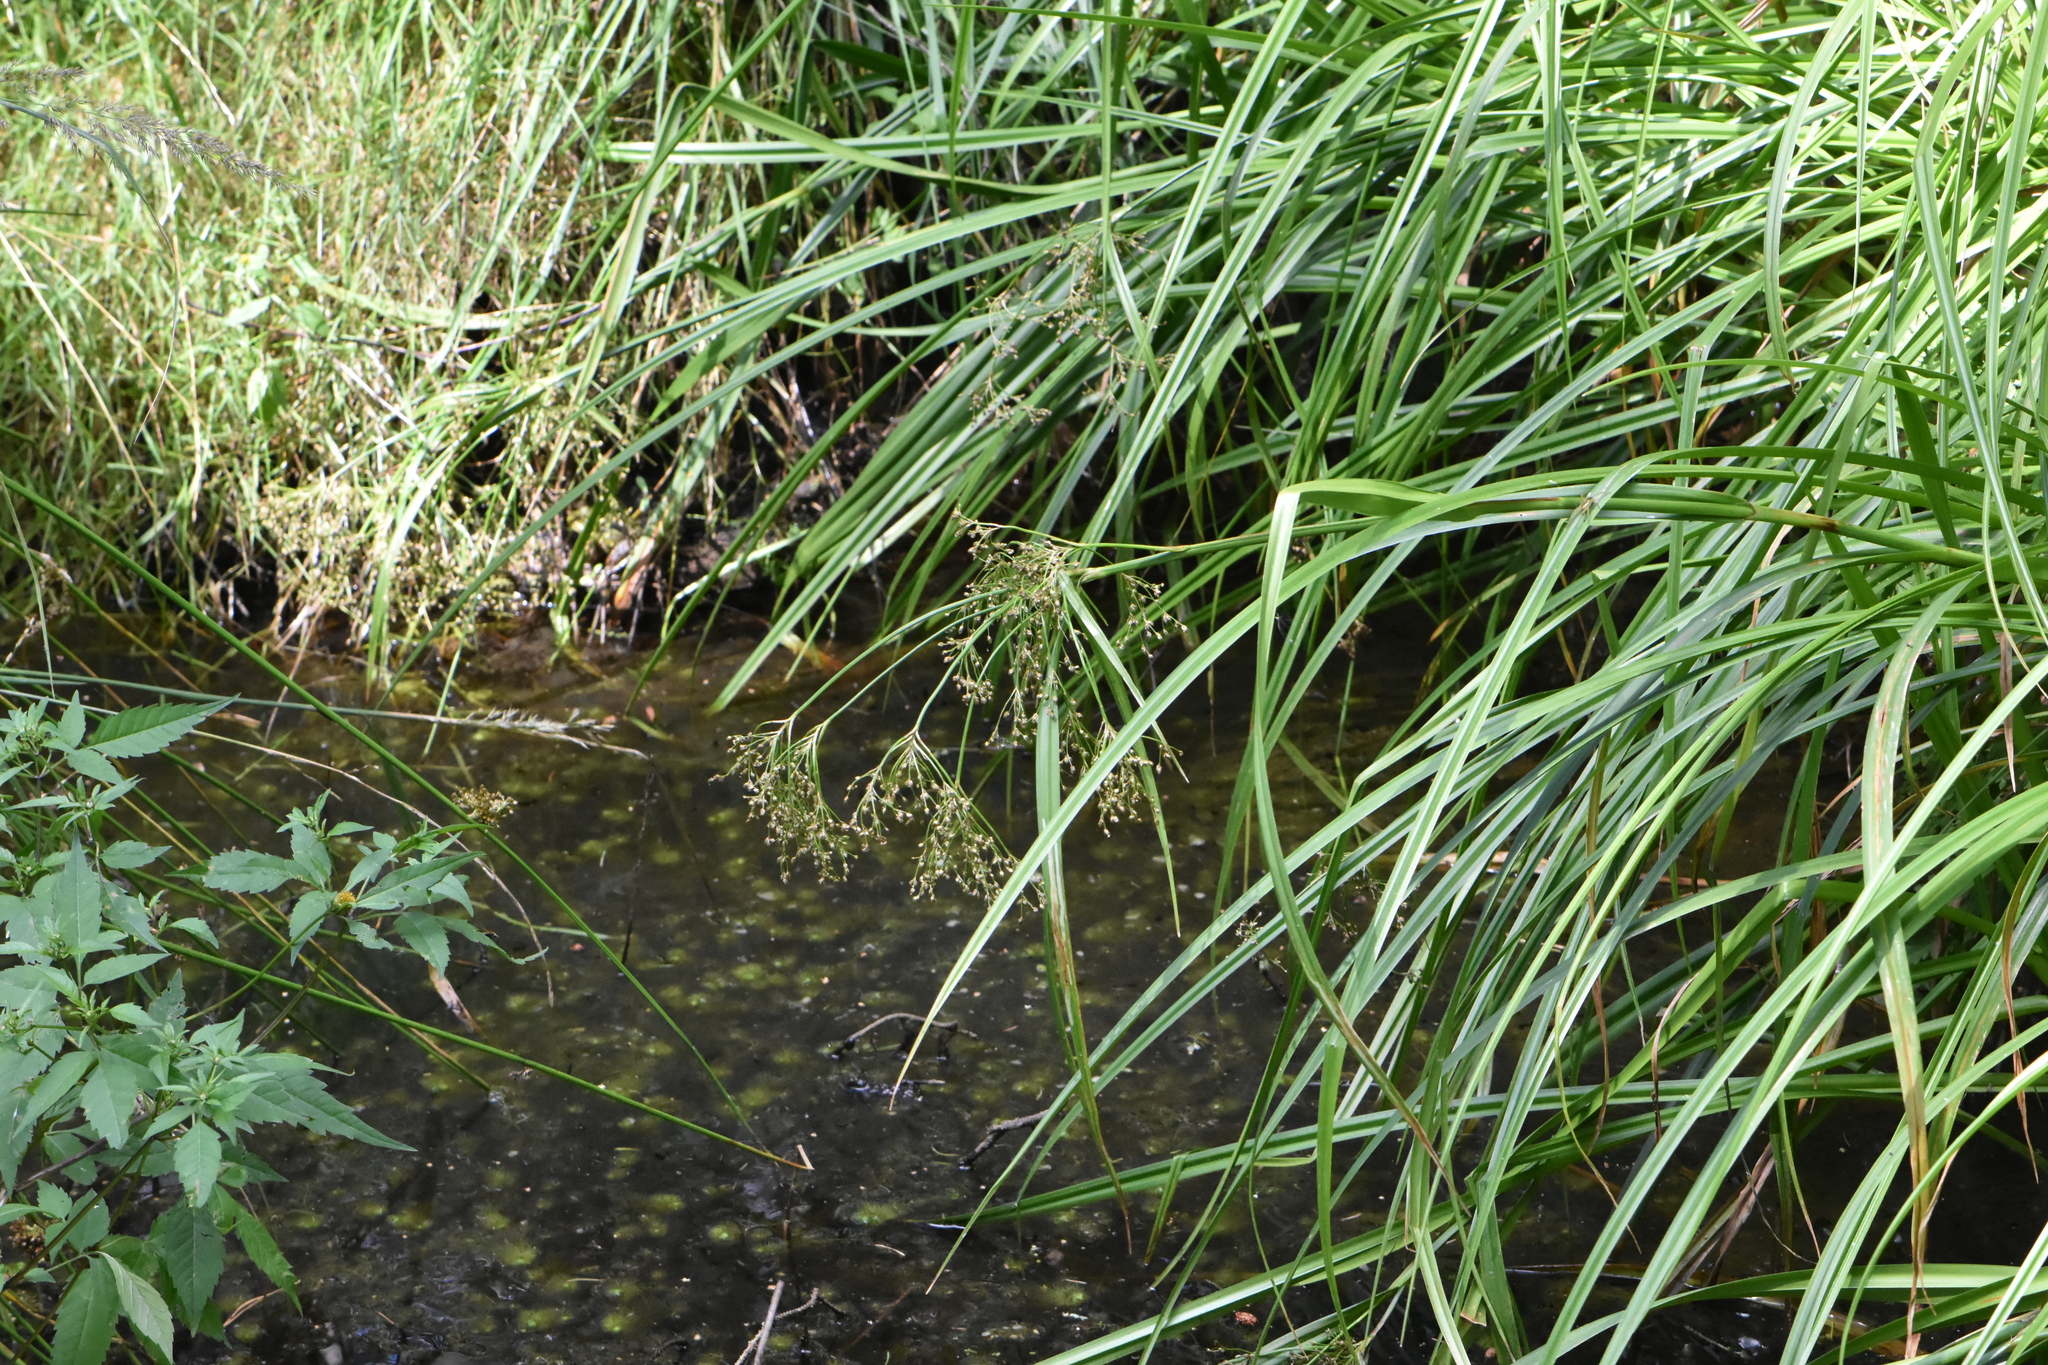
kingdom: Plantae
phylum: Tracheophyta
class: Liliopsida
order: Poales
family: Cyperaceae
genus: Scirpus
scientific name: Scirpus sylvaticus
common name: Wood club-rush
